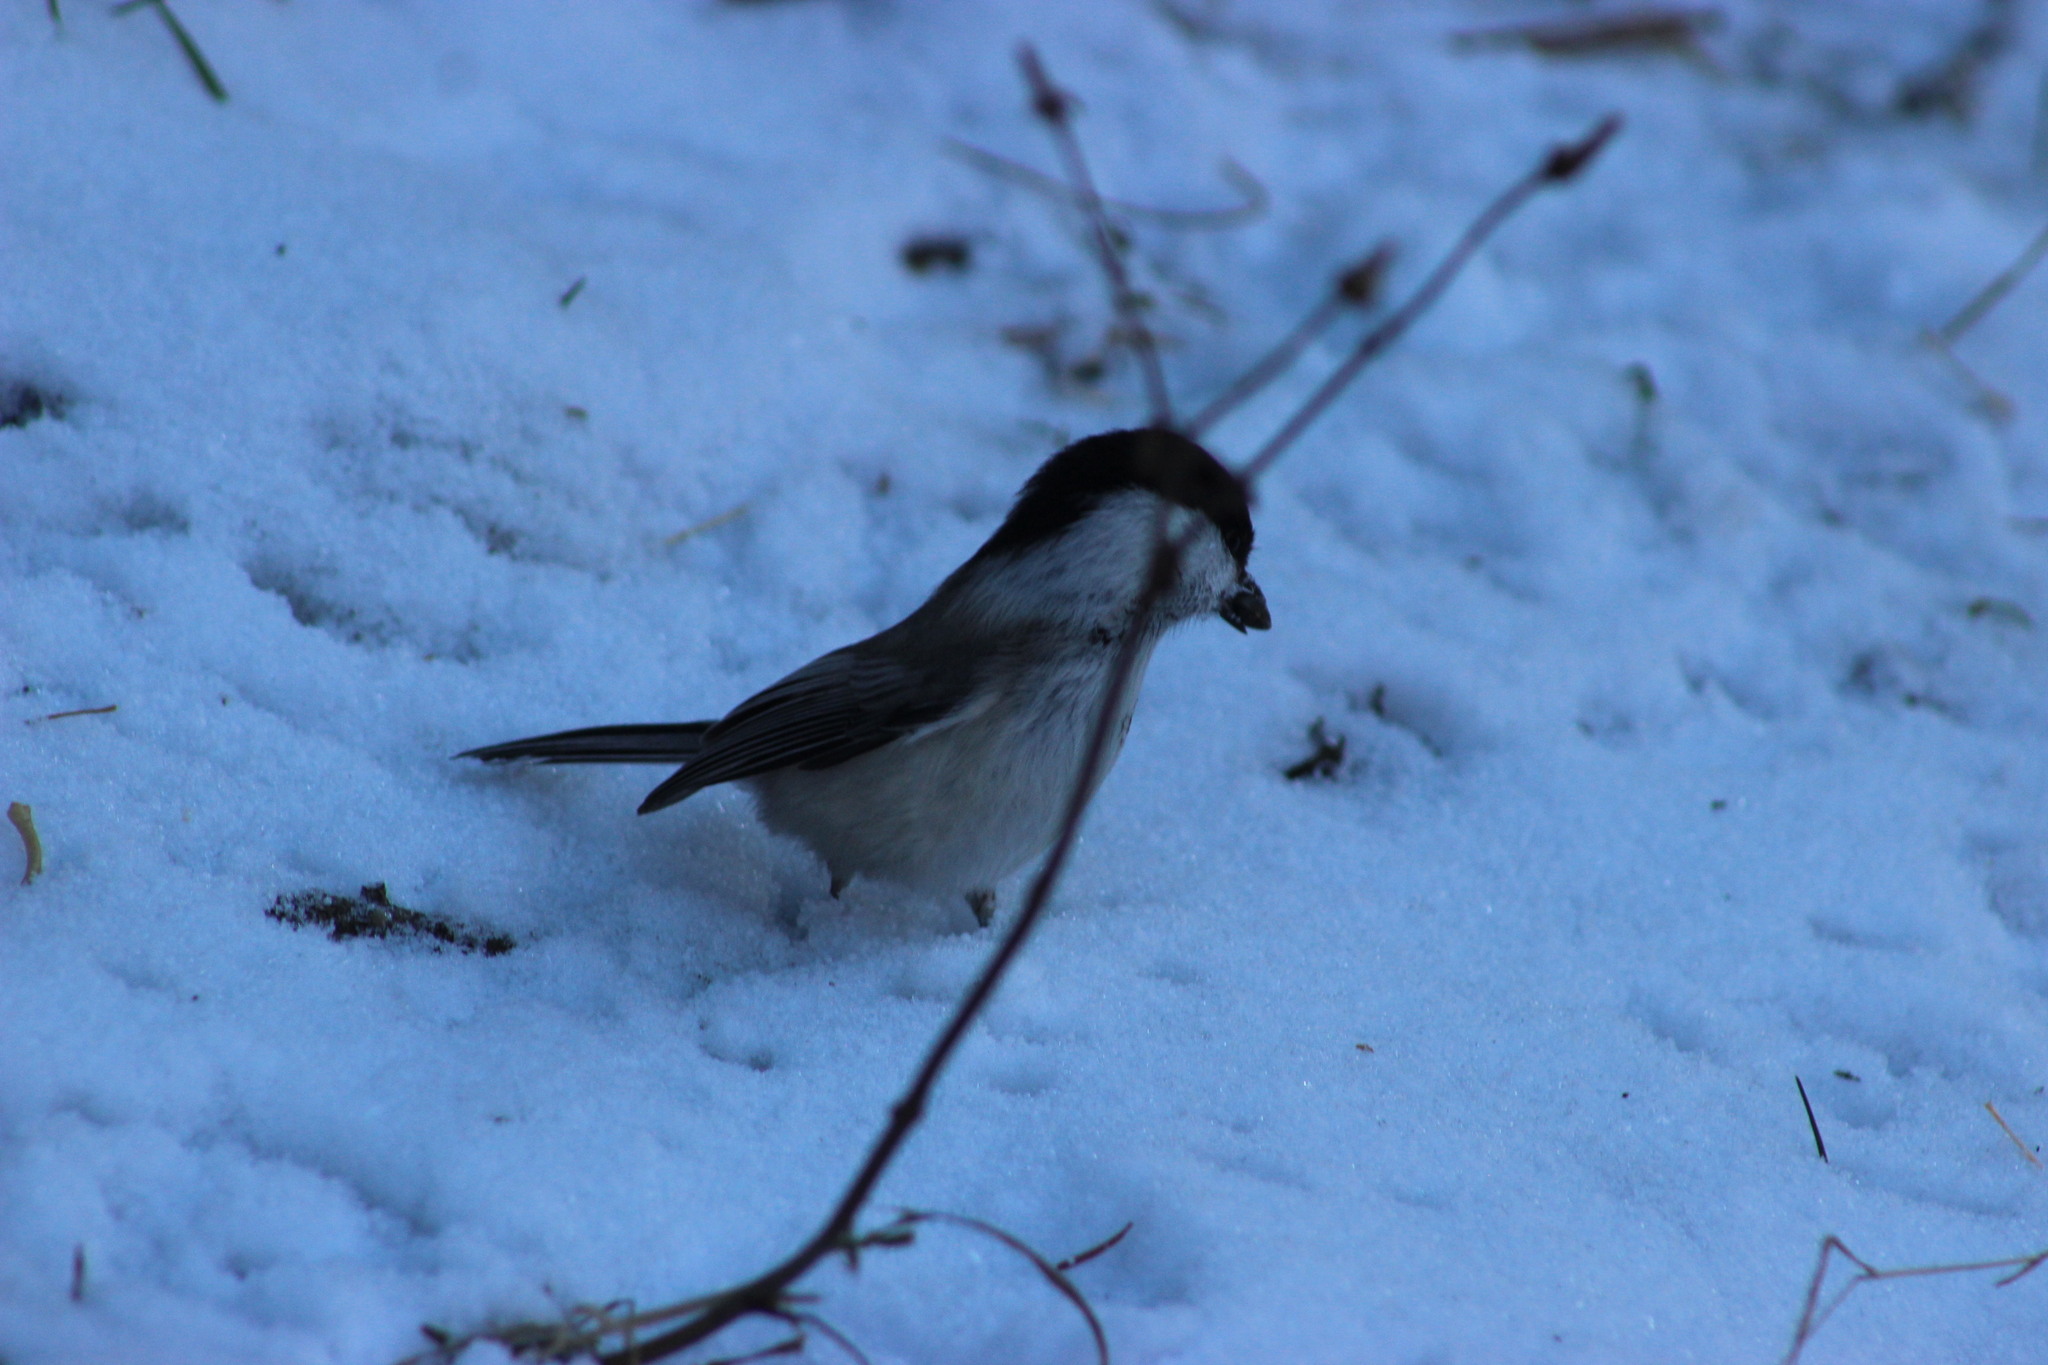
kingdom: Animalia
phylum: Chordata
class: Aves
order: Passeriformes
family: Paridae
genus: Poecile
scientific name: Poecile montanus
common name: Willow tit
